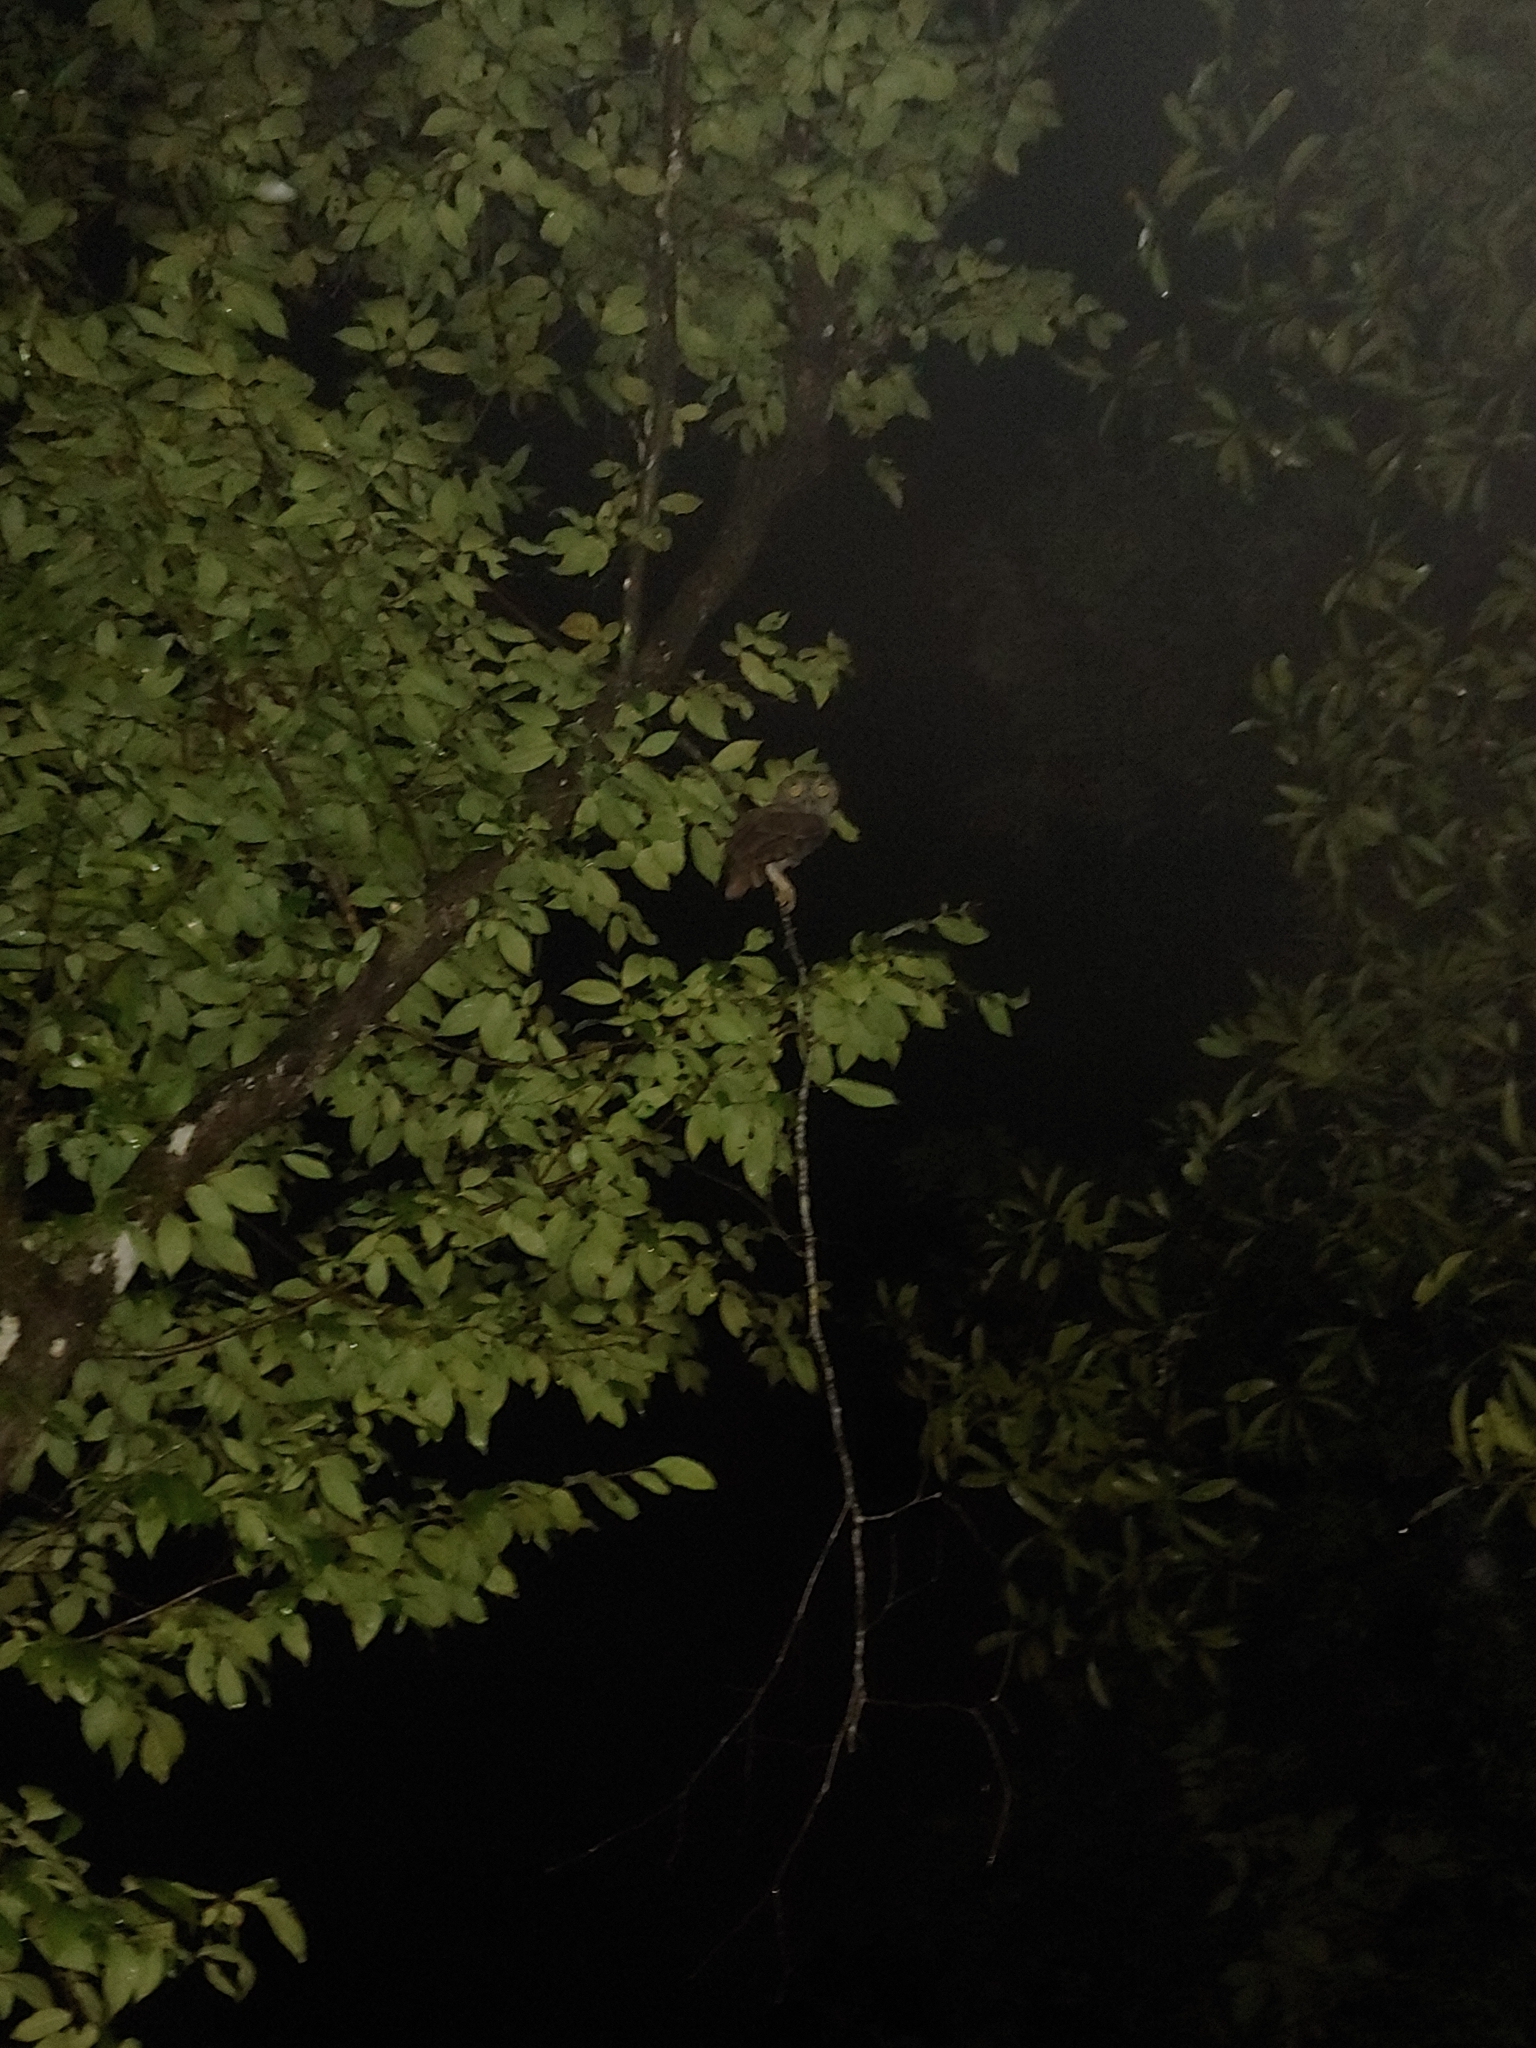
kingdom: Animalia
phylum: Chordata
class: Aves
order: Strigiformes
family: Strigidae
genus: Megascops
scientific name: Megascops asio
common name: Eastern screech-owl
